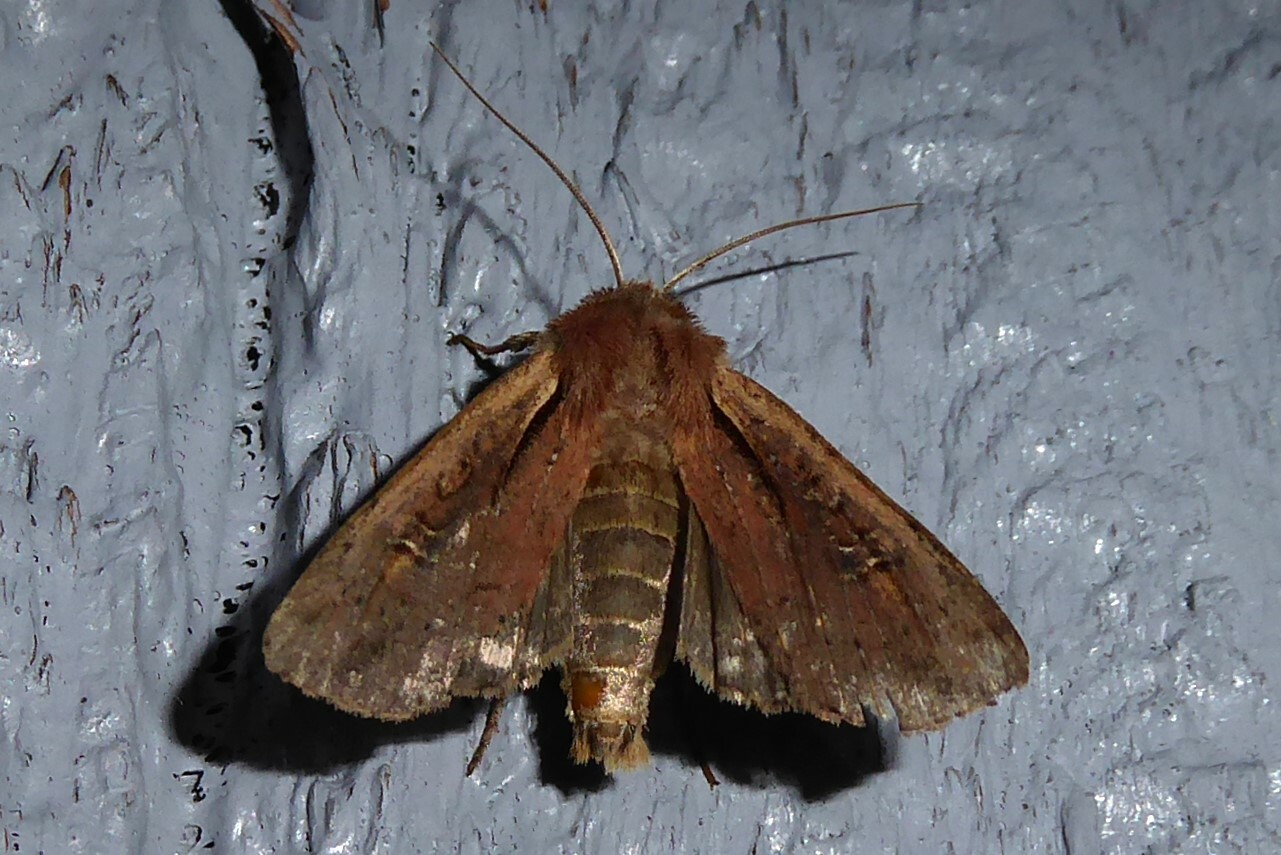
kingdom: Animalia
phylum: Arthropoda
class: Insecta
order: Lepidoptera
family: Noctuidae
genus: Ichneutica
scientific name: Ichneutica atristriga
